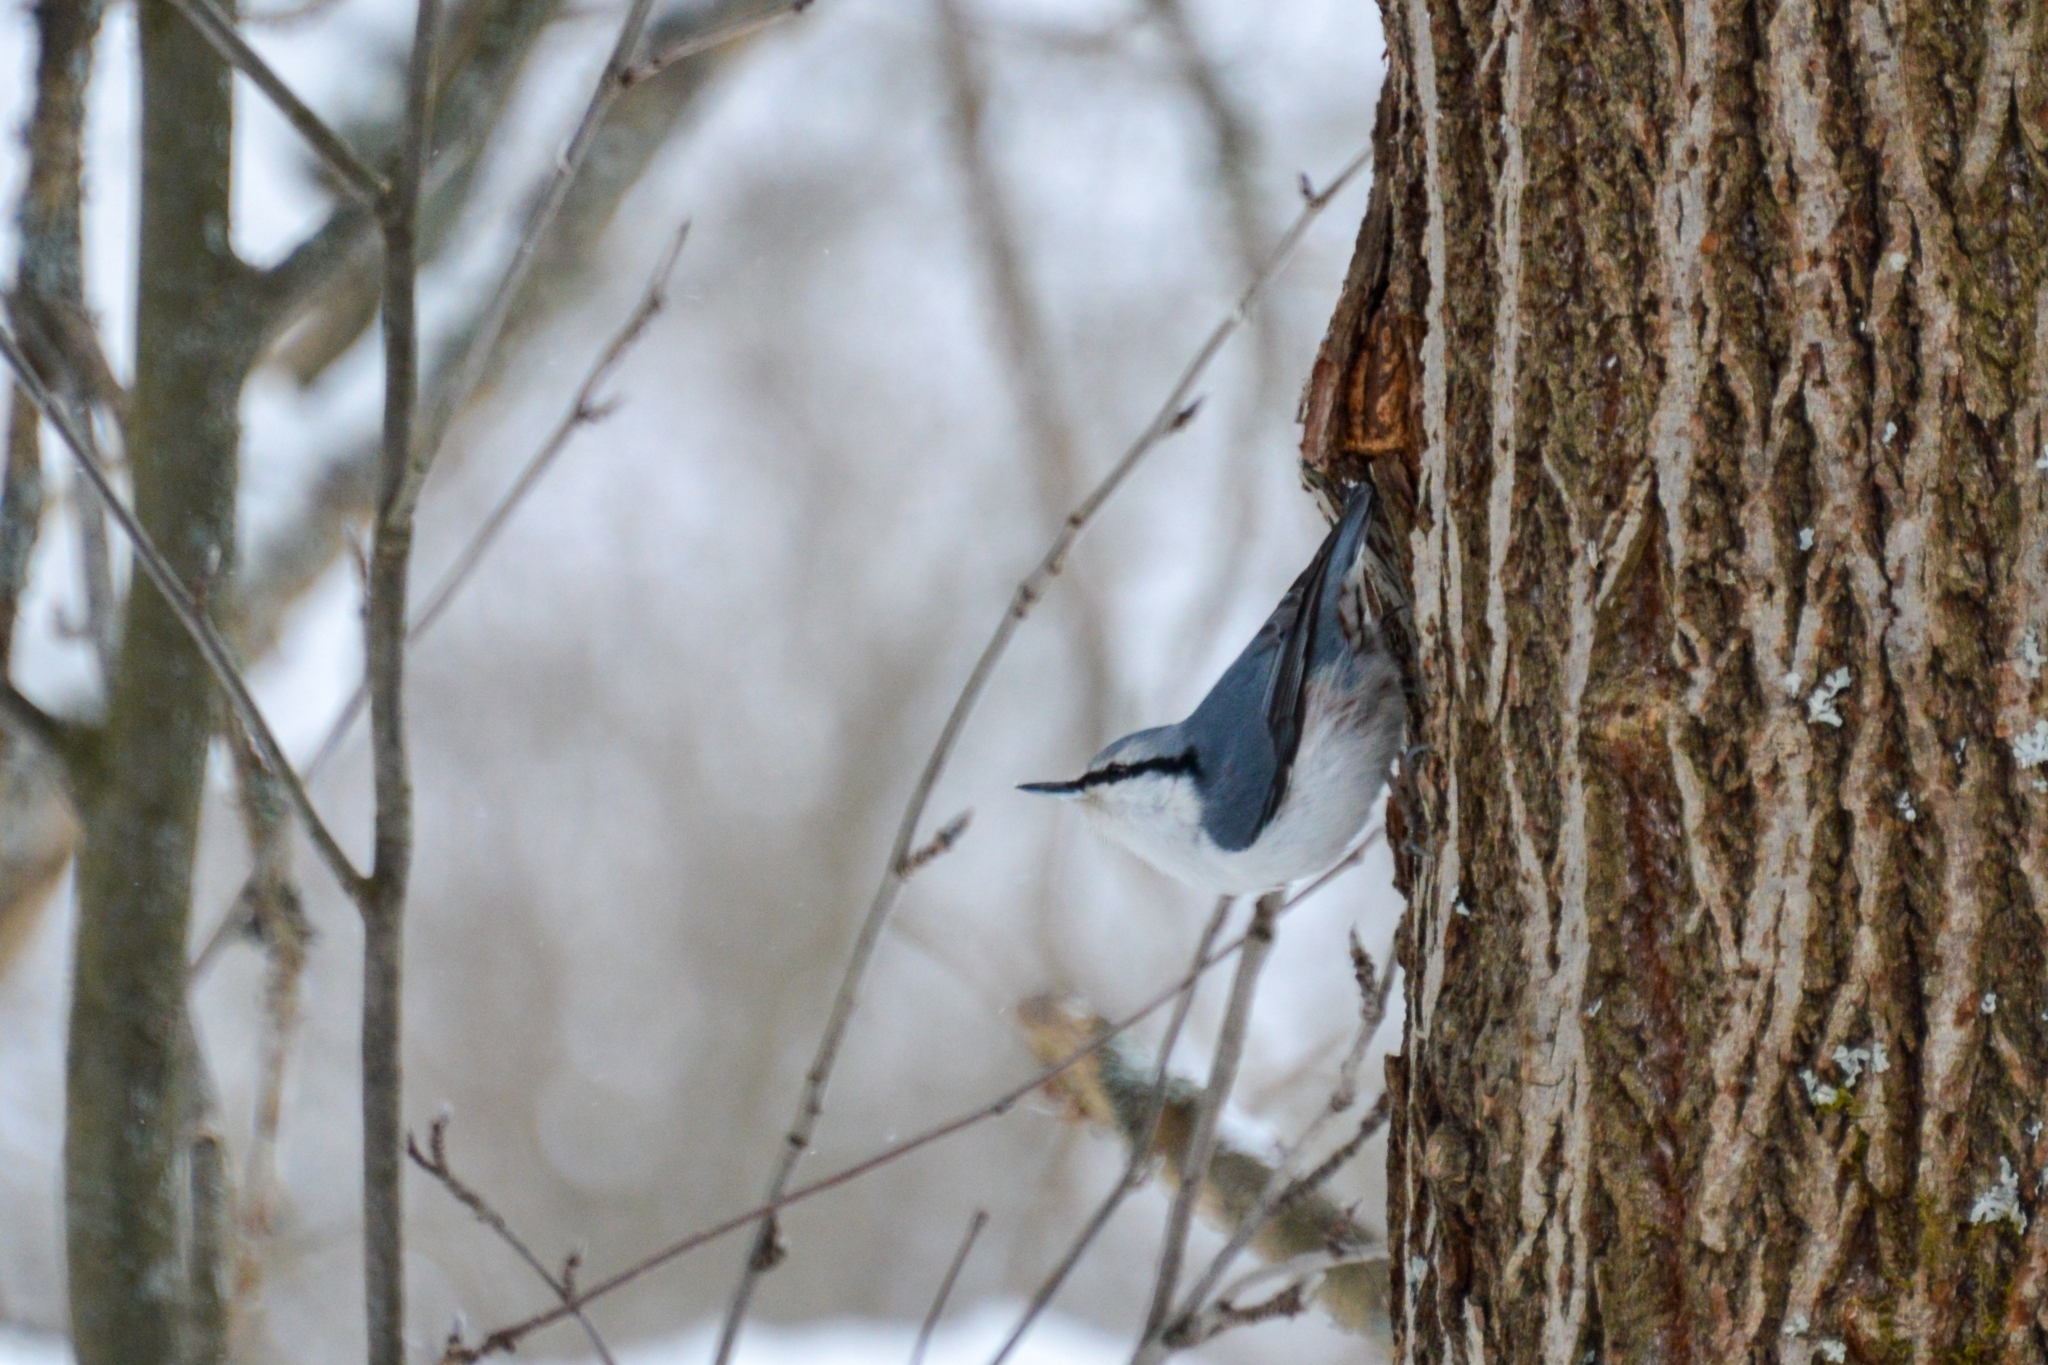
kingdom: Animalia
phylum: Chordata
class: Aves
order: Passeriformes
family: Sittidae
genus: Sitta
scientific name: Sitta europaea
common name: Eurasian nuthatch
